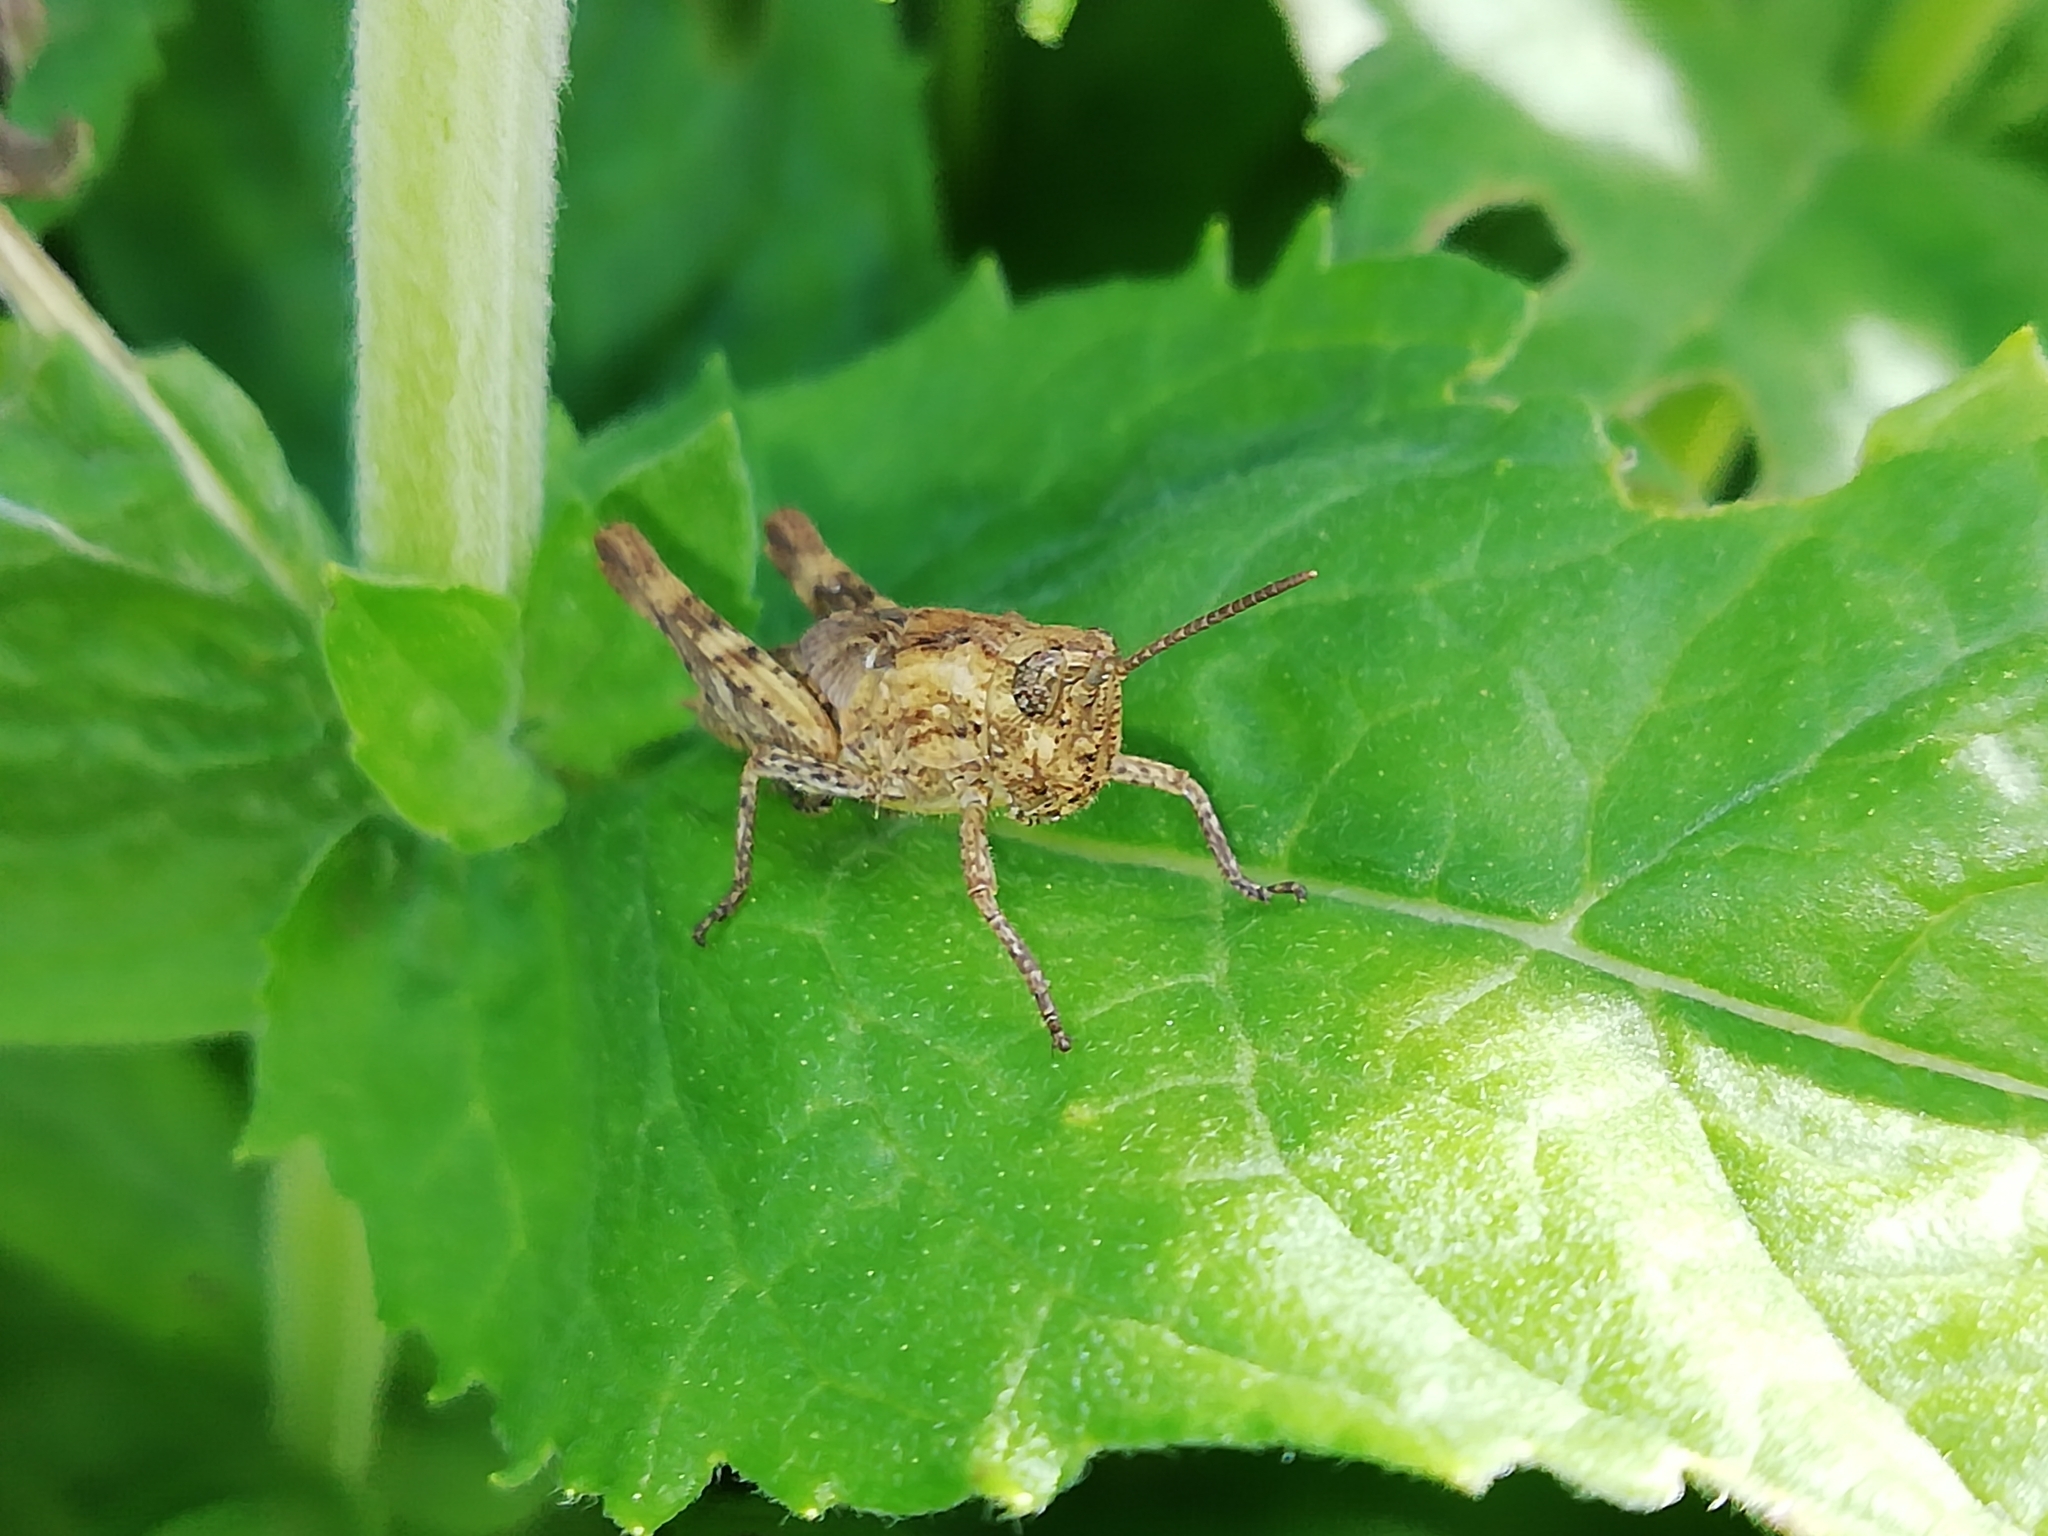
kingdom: Animalia
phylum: Arthropoda
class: Insecta
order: Orthoptera
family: Acrididae
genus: Chorthippus
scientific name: Chorthippus biguttulus
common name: Bow-winged grasshopper
